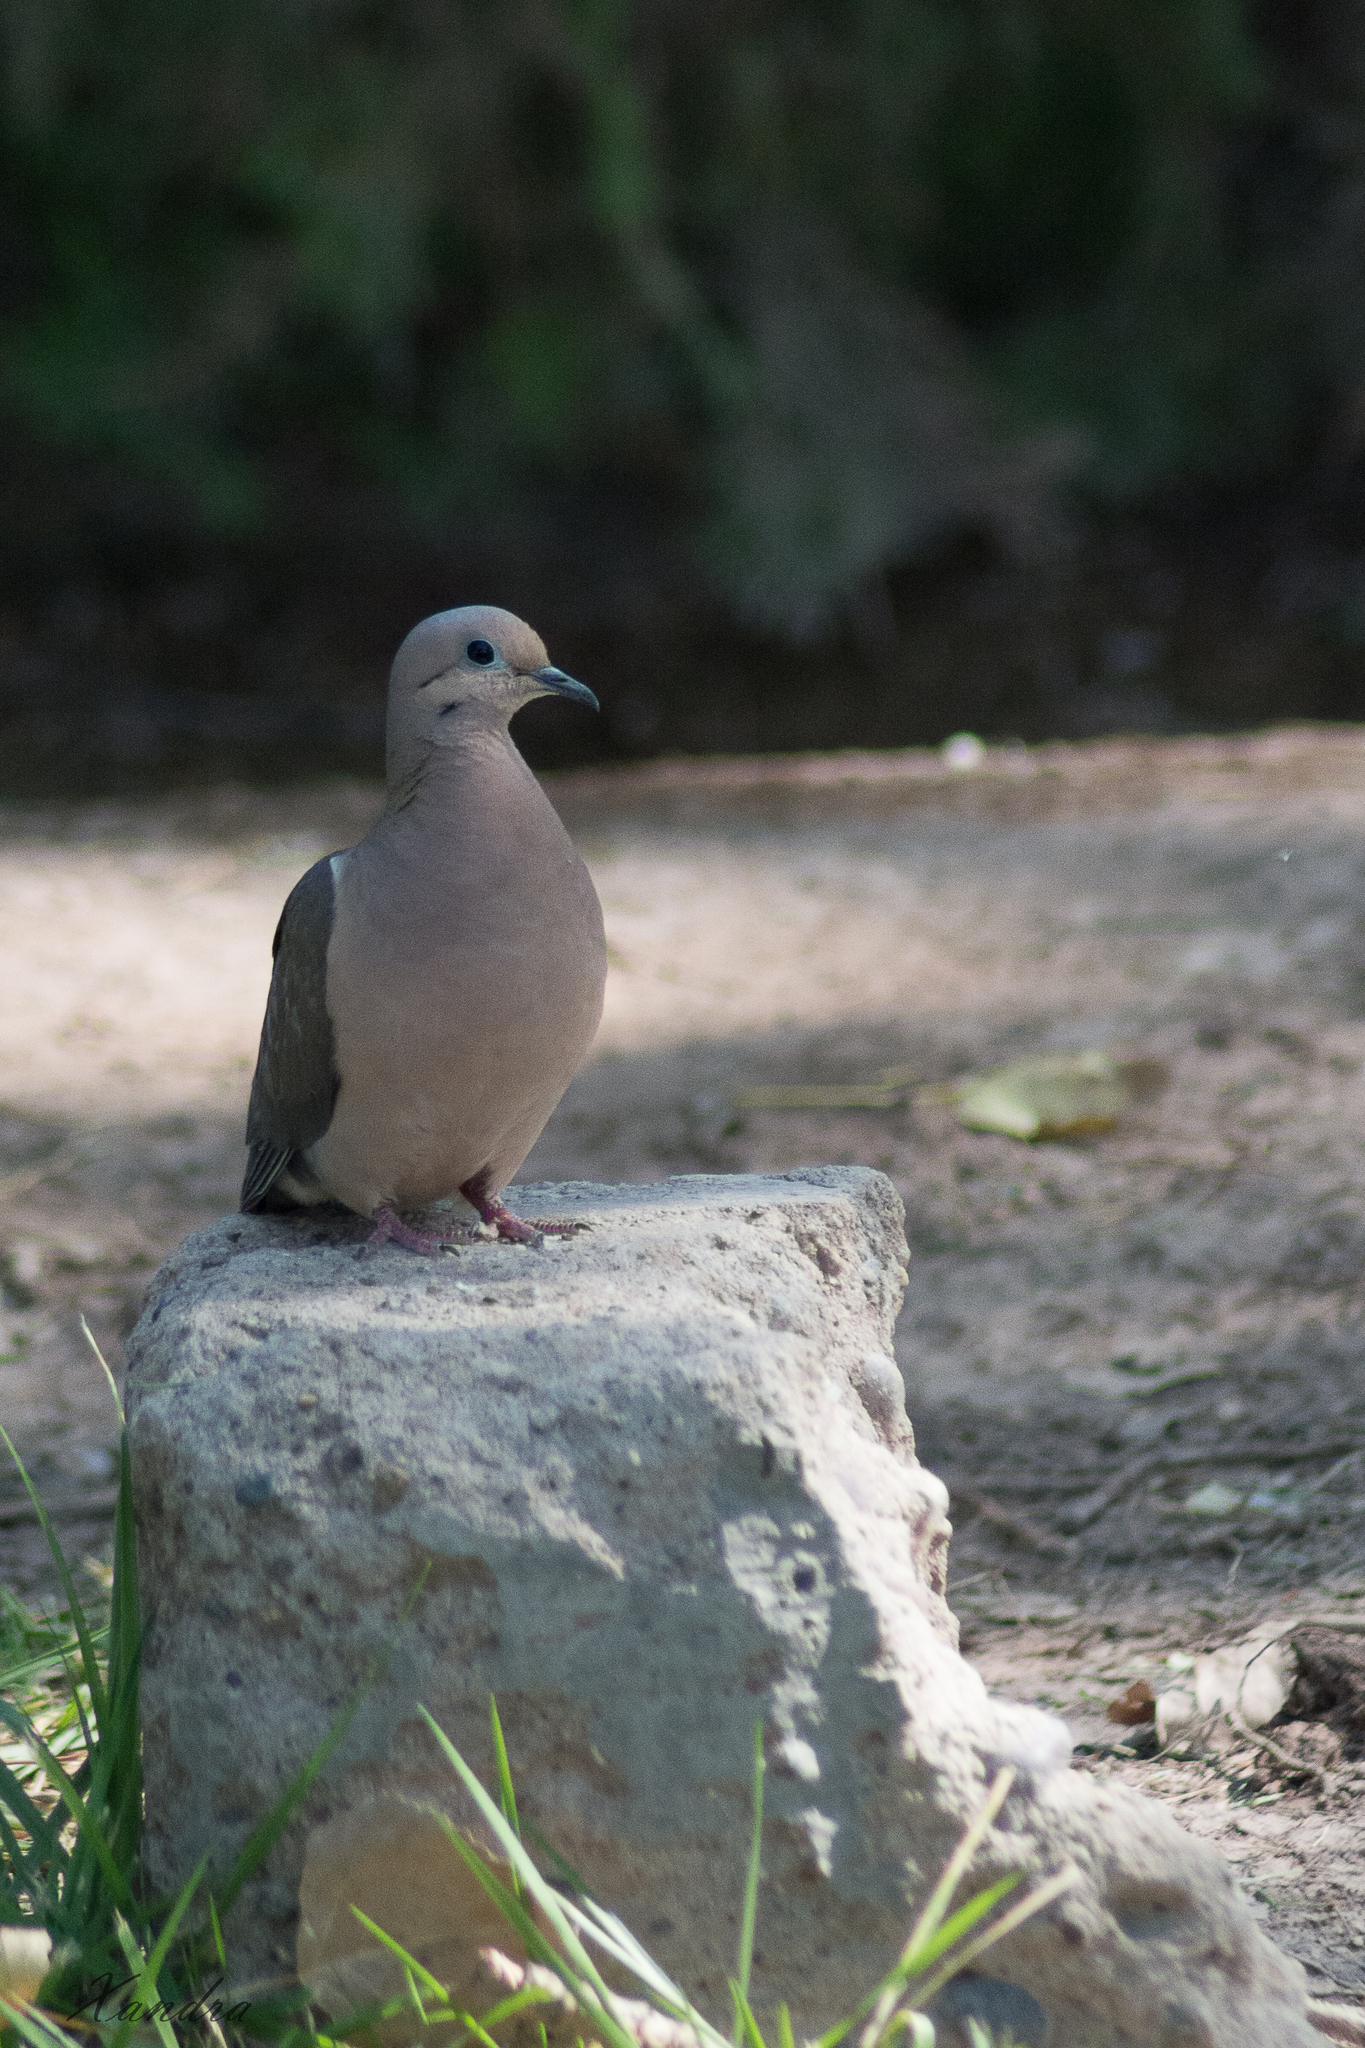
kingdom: Animalia
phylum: Chordata
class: Aves
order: Columbiformes
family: Columbidae
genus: Zenaida
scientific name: Zenaida auriculata
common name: Eared dove
